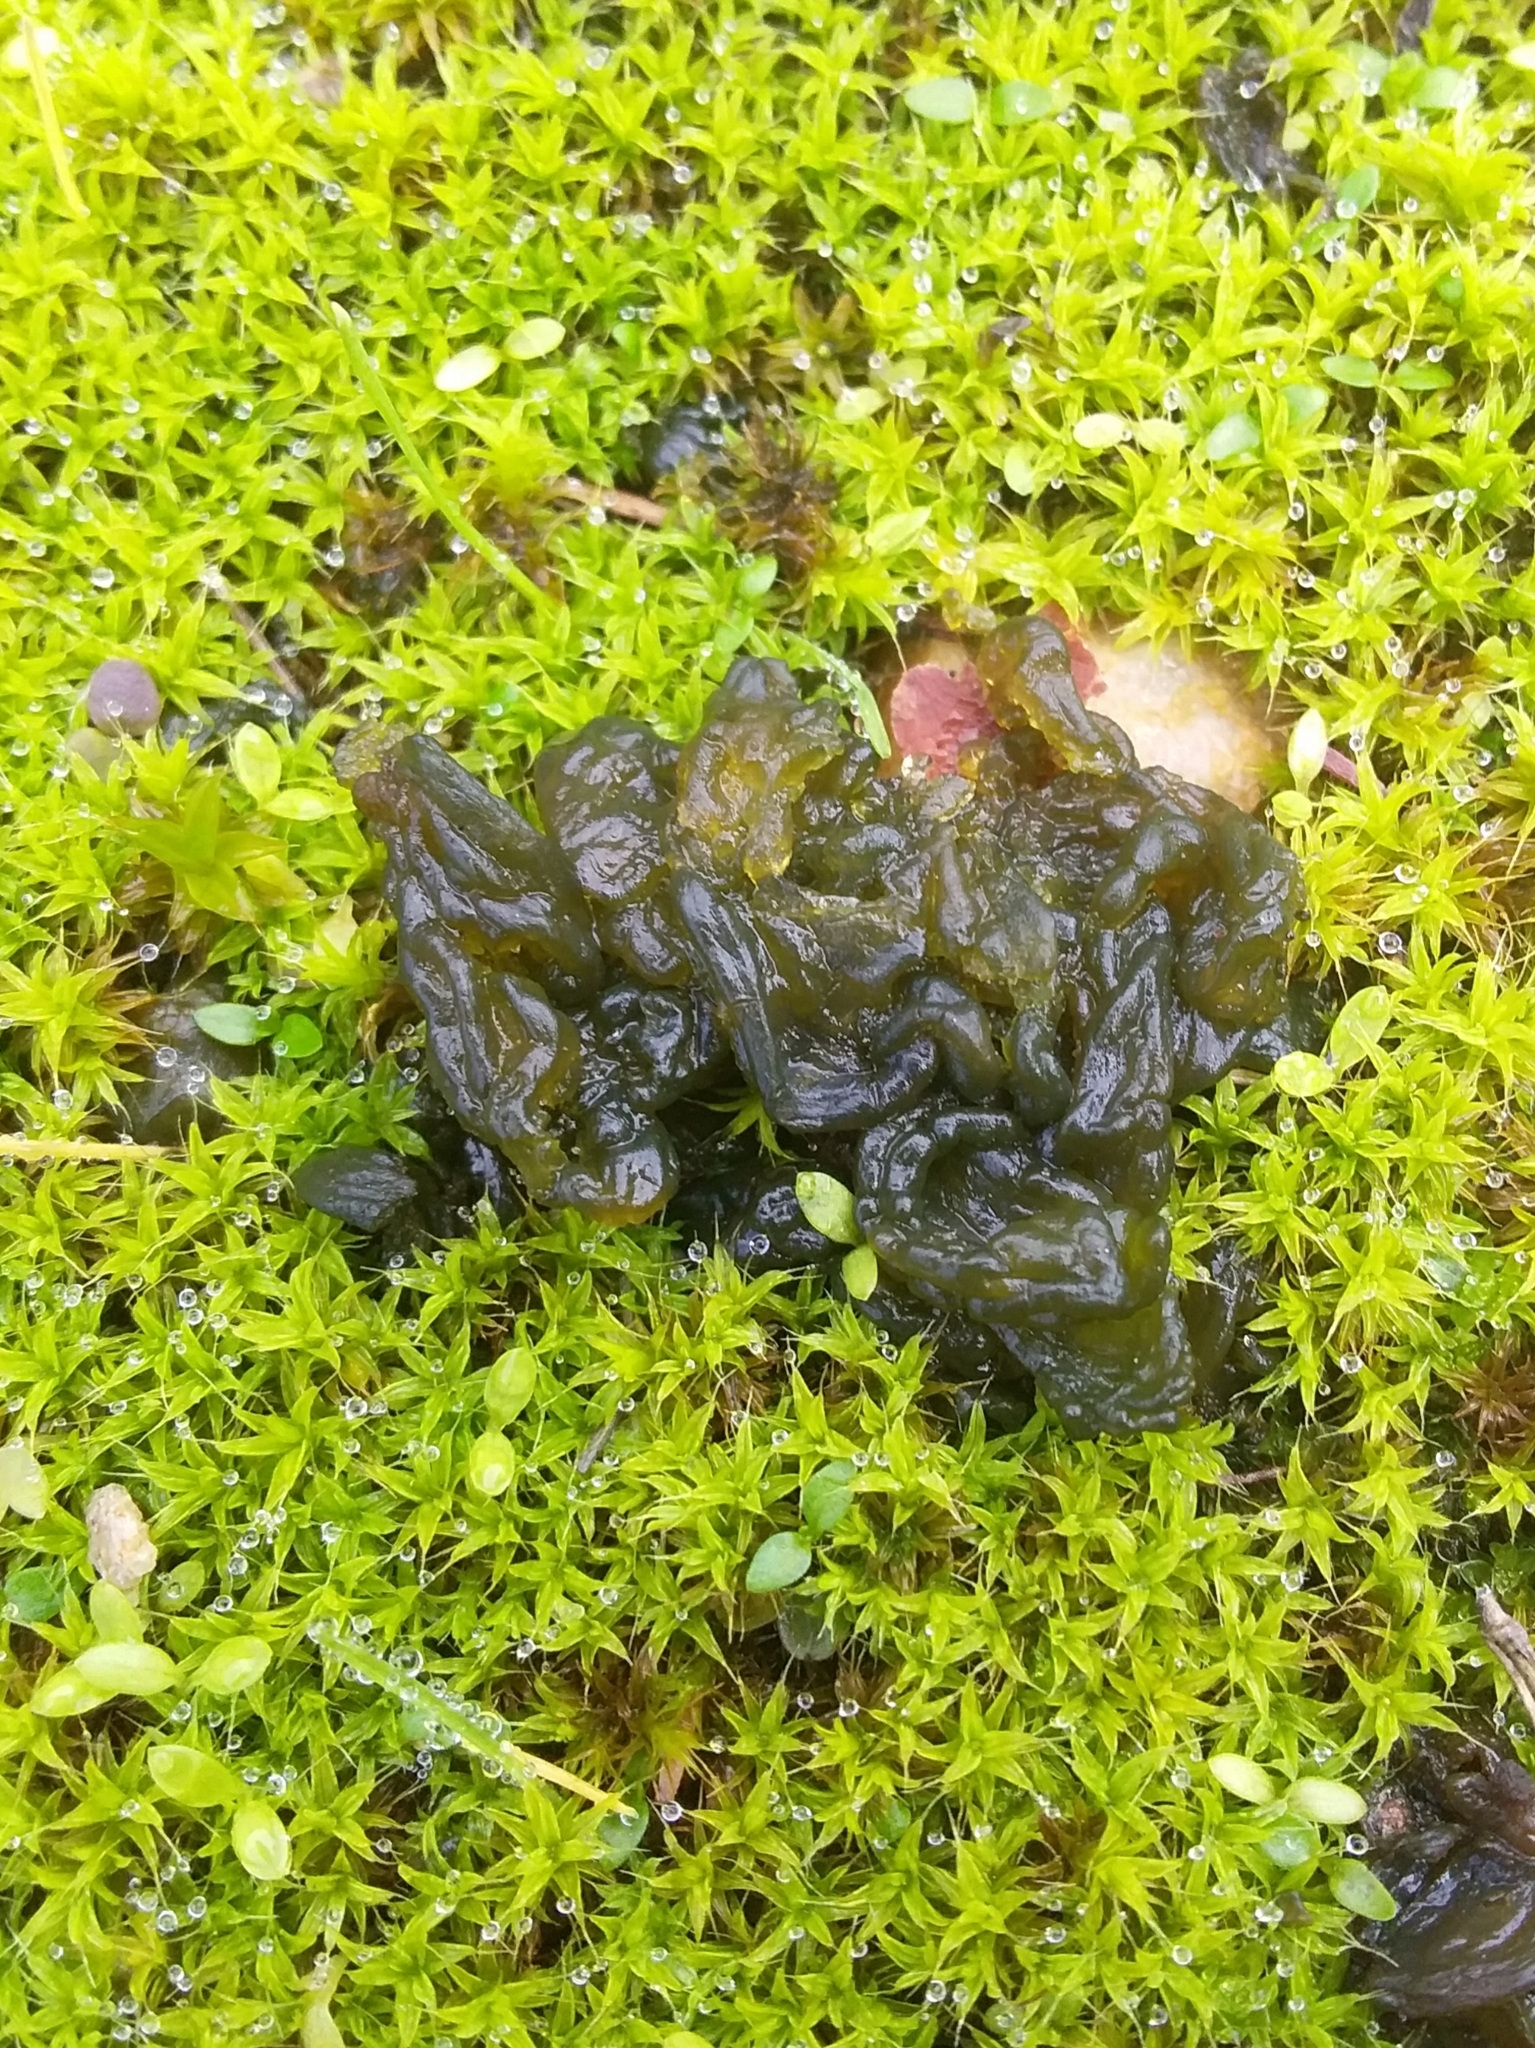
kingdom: Bacteria
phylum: Cyanobacteria
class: Cyanobacteriia
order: Cyanobacteriales
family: Nostocaceae
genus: Nostoc
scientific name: Nostoc commune
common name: Star jelly
